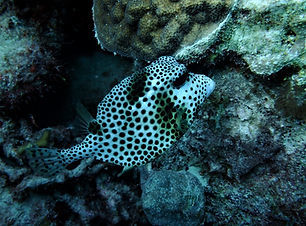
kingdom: Animalia
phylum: Chordata
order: Tetraodontiformes
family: Ostraciidae
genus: Lactophrys
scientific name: Lactophrys bicaudalis
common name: Spotted trunkfish
